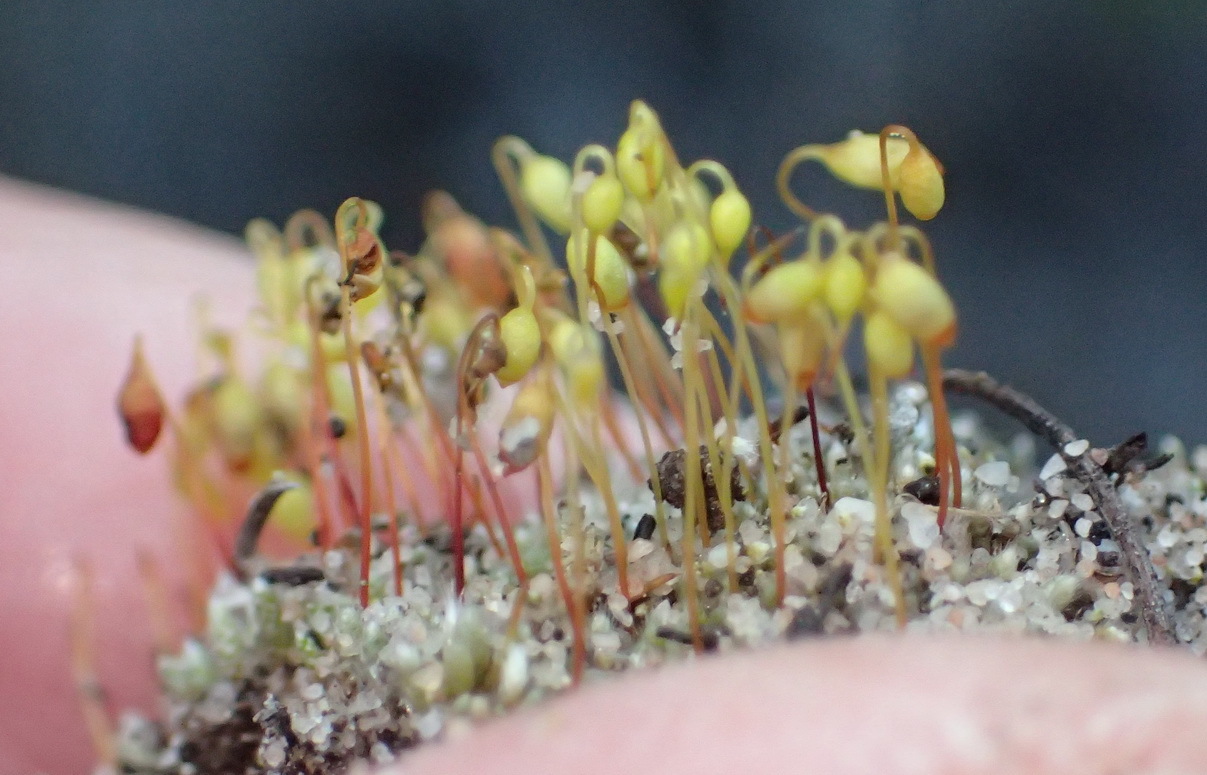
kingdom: Plantae
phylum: Bryophyta
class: Bryopsida
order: Bryales
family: Bryaceae
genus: Bryum
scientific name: Bryum argenteum
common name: Silver-moss
